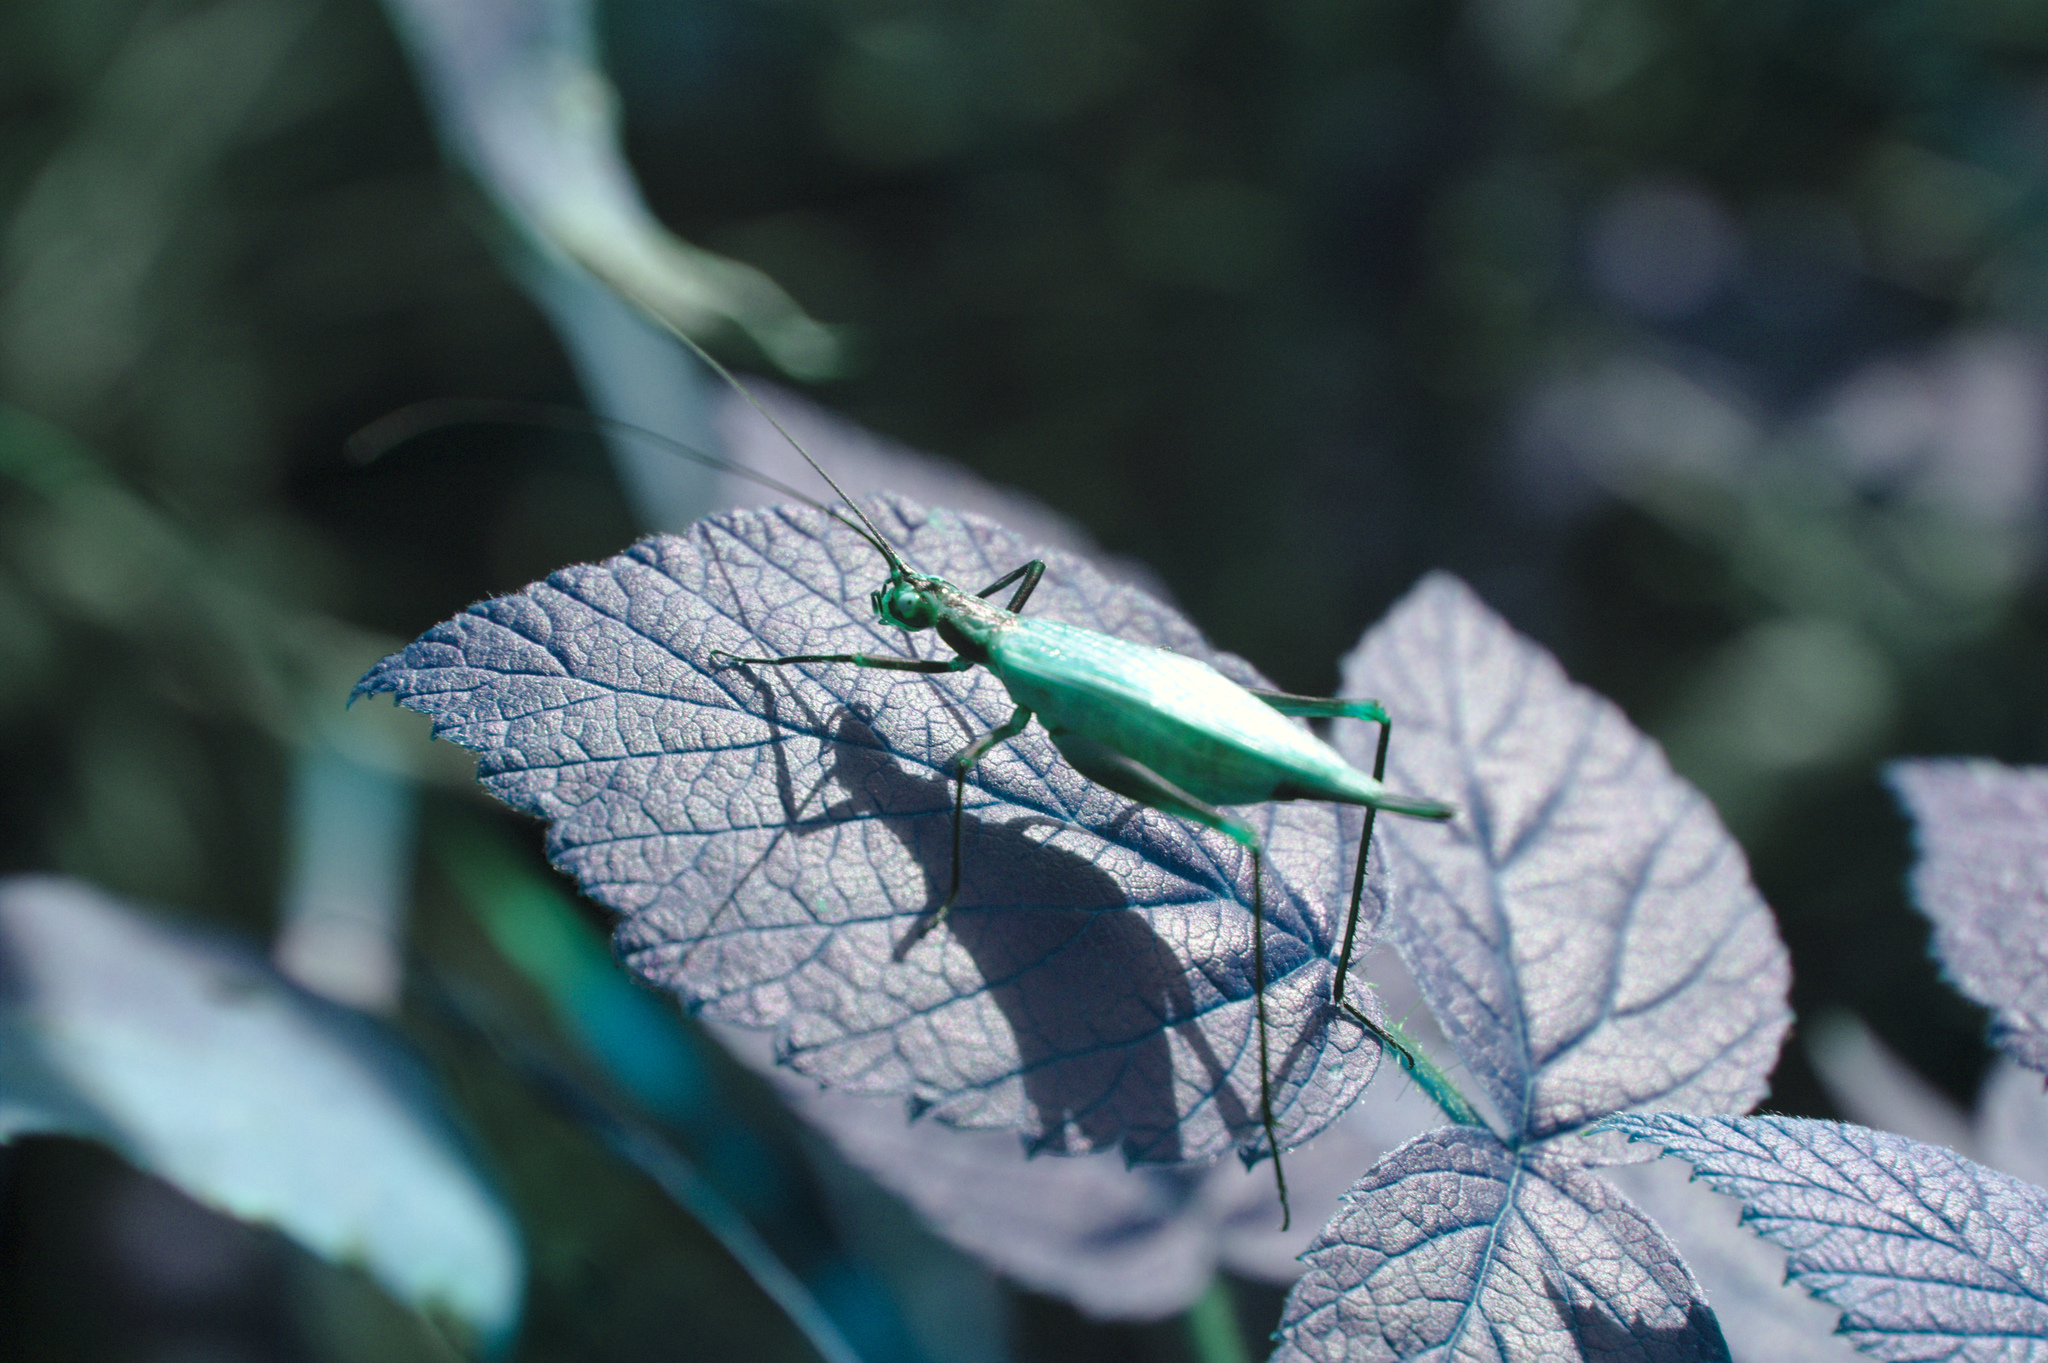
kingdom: Animalia
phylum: Arthropoda
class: Insecta
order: Orthoptera
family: Gryllidae
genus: Oecanthus
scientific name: Oecanthus nigricornis
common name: Black-horned tree cricket
